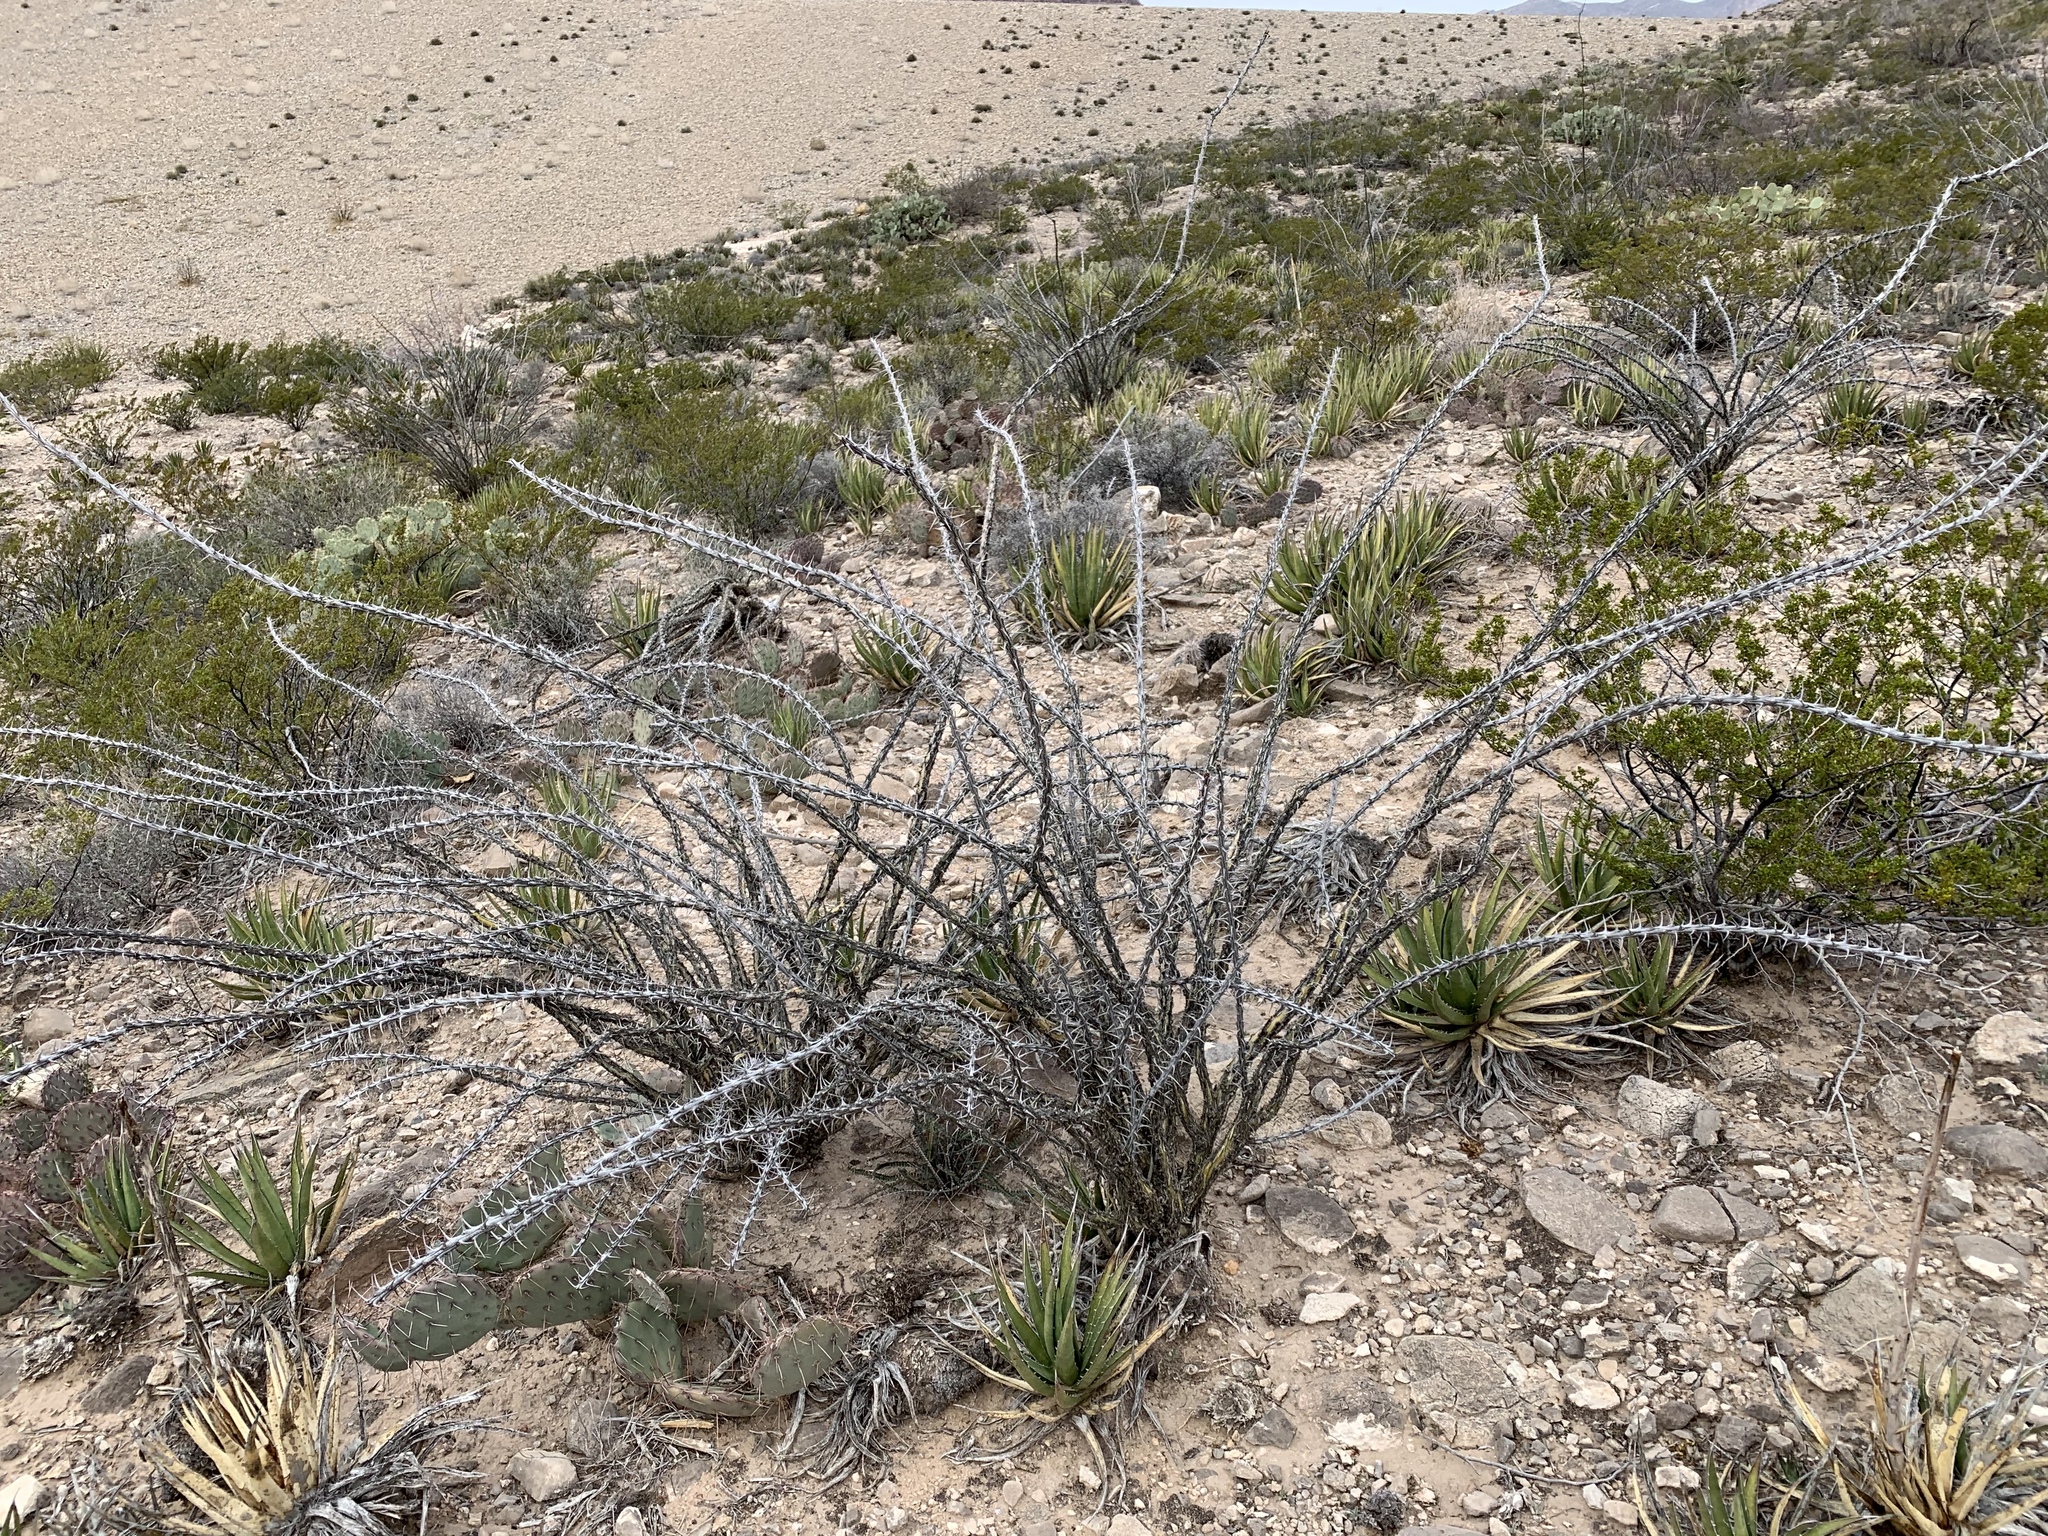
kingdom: Plantae
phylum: Tracheophyta
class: Magnoliopsida
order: Ericales
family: Fouquieriaceae
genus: Fouquieria
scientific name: Fouquieria splendens
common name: Vine-cactus
